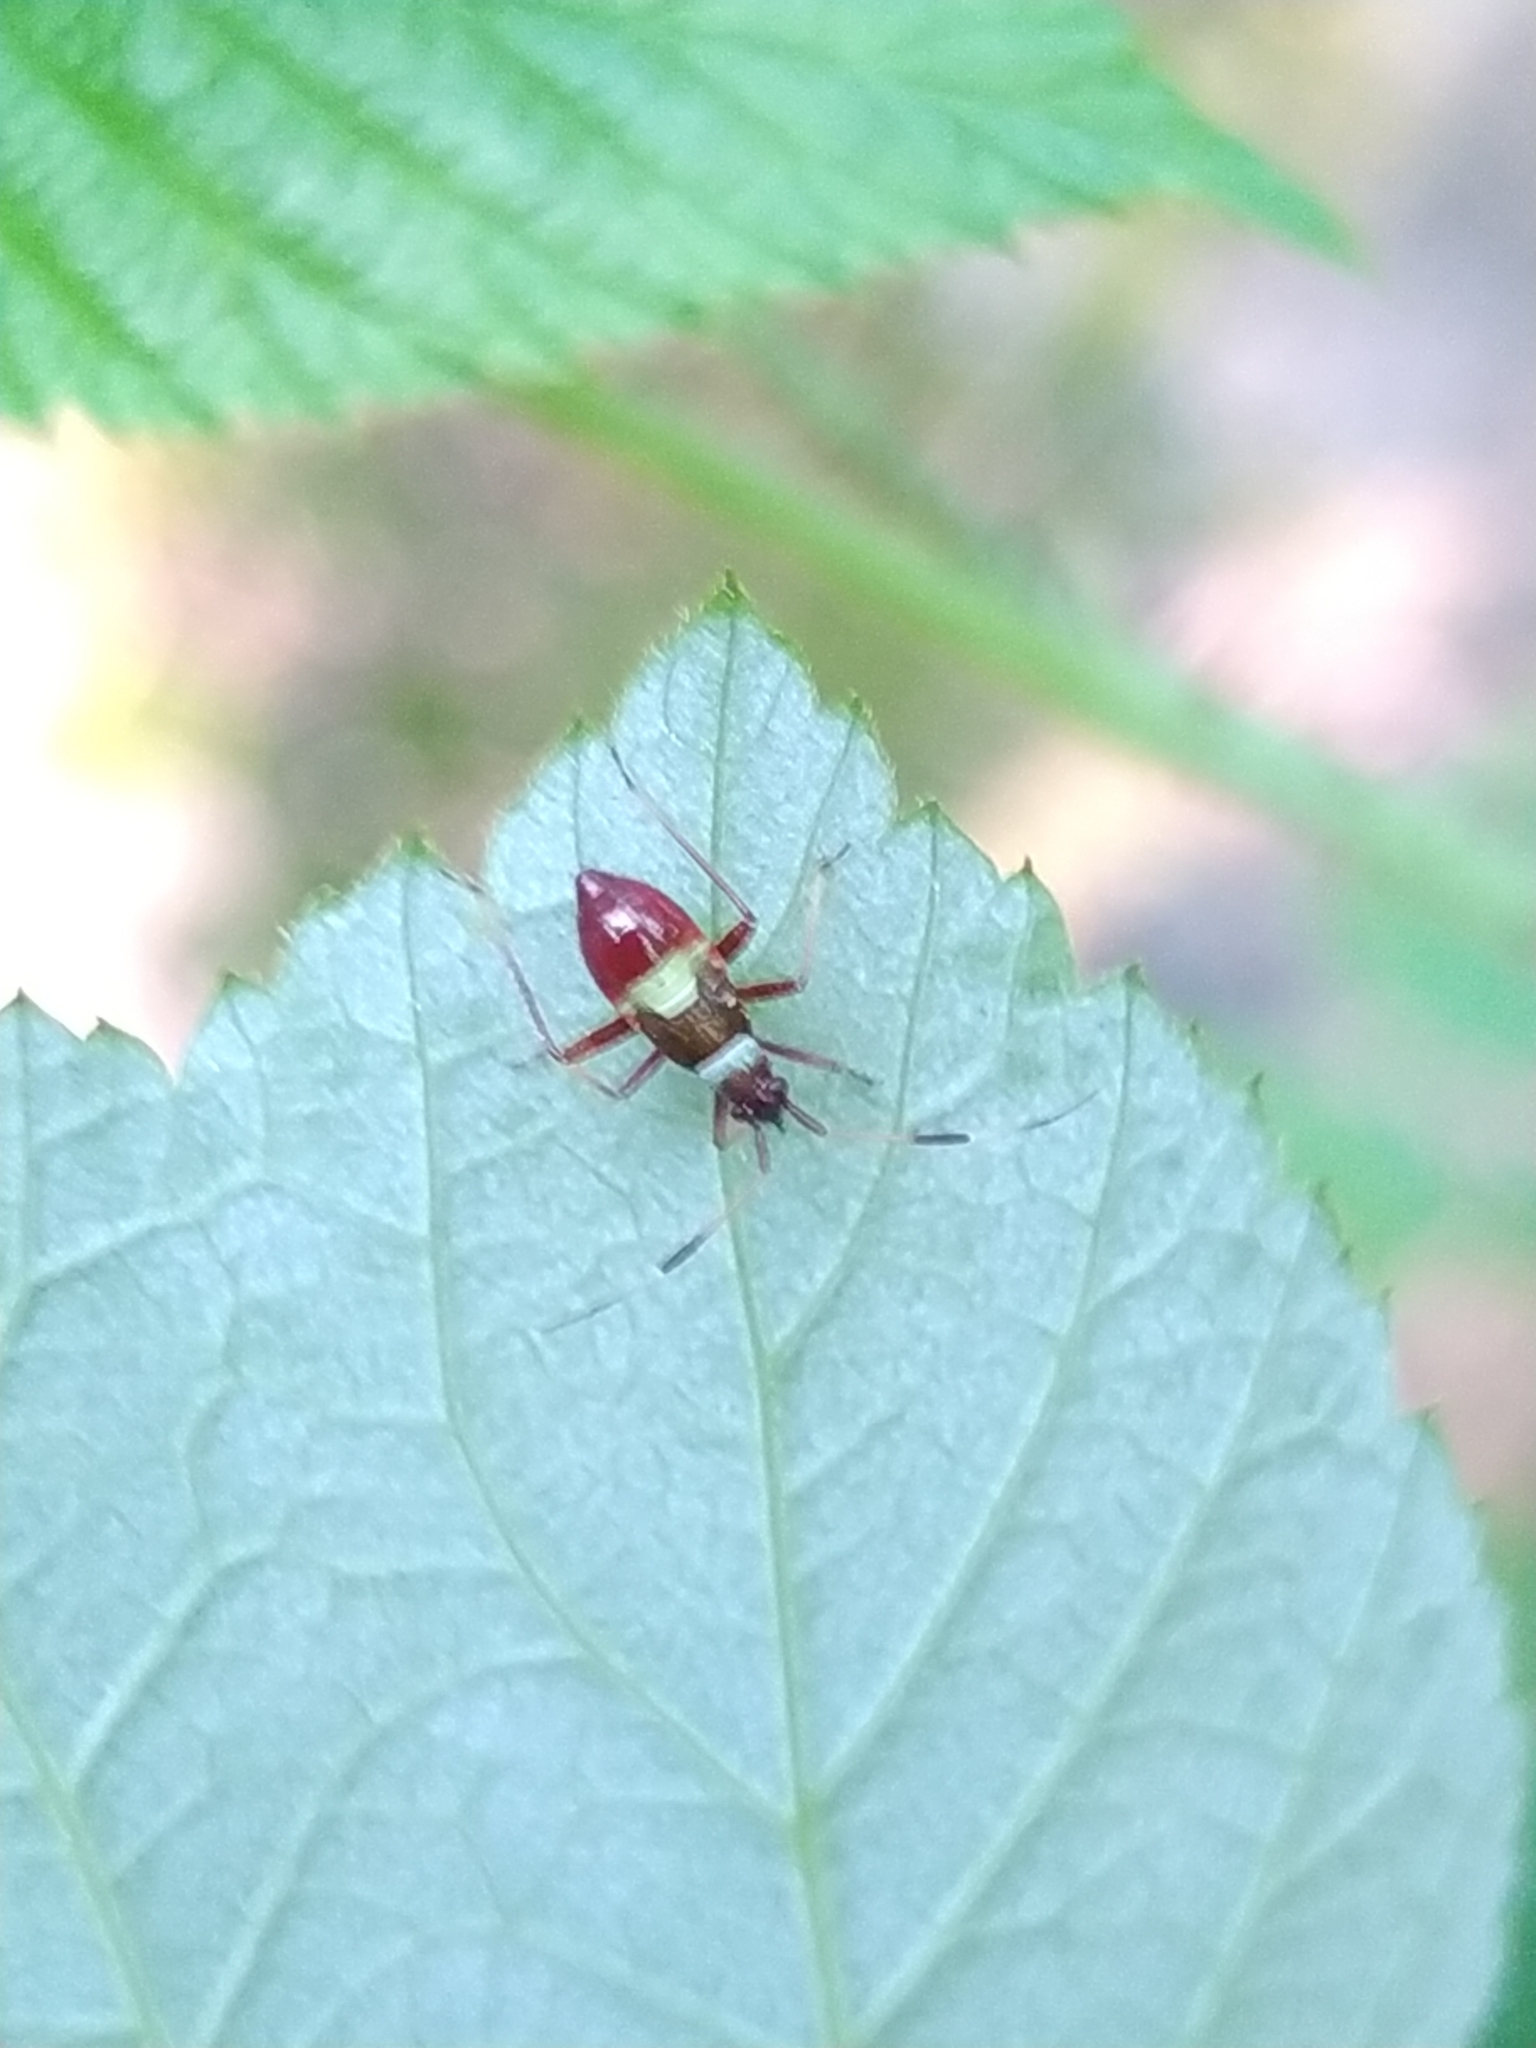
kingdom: Animalia
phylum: Arthropoda
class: Insecta
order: Hemiptera
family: Miridae
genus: Closterotomus
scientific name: Closterotomus biclavatus
